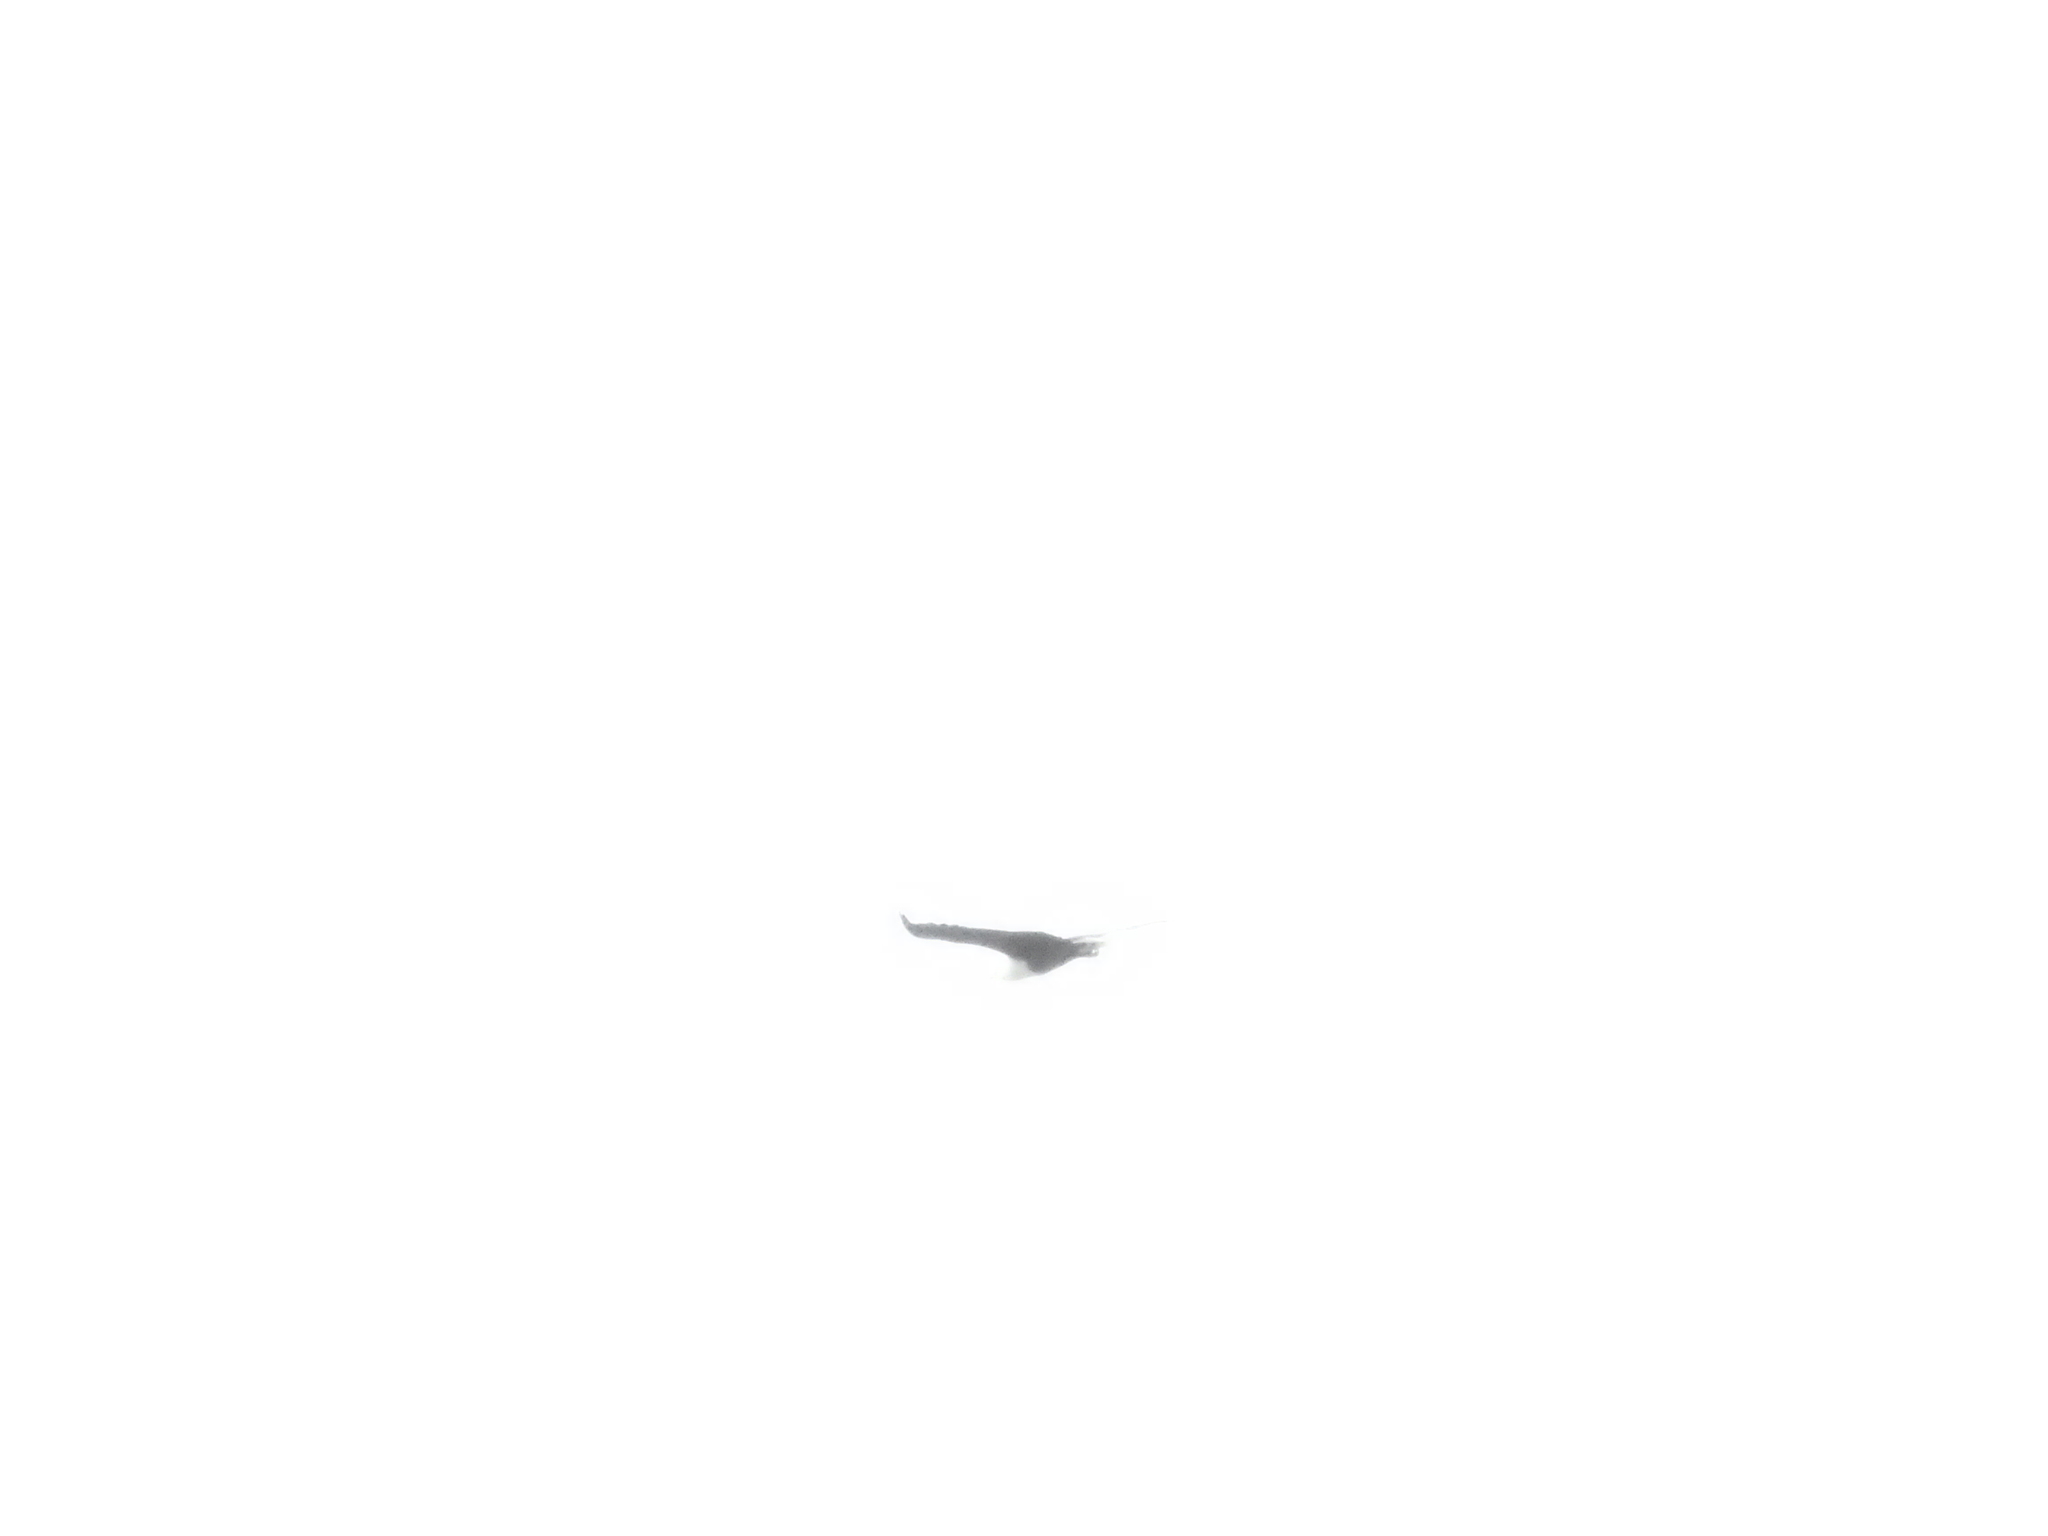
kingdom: Animalia
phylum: Chordata
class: Aves
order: Accipitriformes
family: Accipitridae
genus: Haliaeetus
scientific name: Haliaeetus vocifer
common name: African fish eagle
